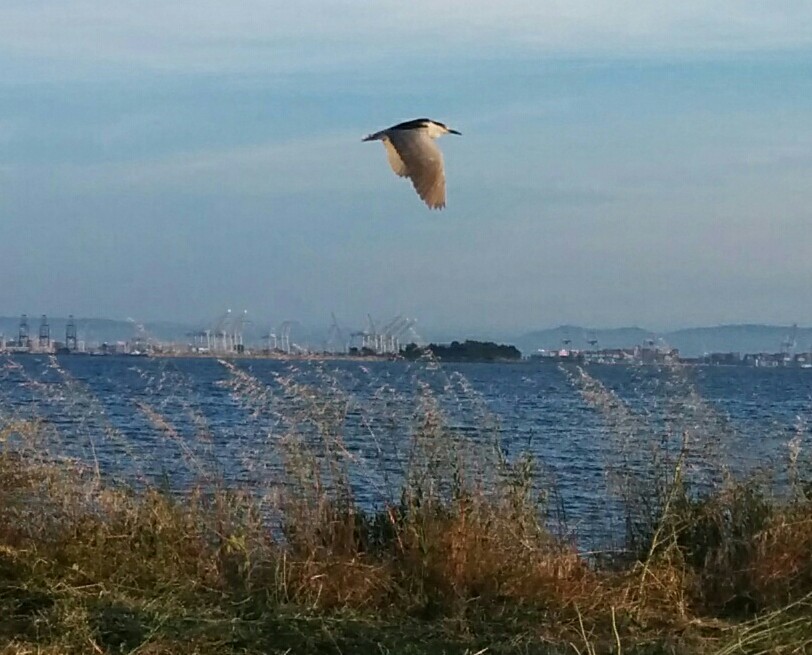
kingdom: Animalia
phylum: Chordata
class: Aves
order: Pelecaniformes
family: Ardeidae
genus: Nycticorax
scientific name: Nycticorax nycticorax
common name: Black-crowned night heron
